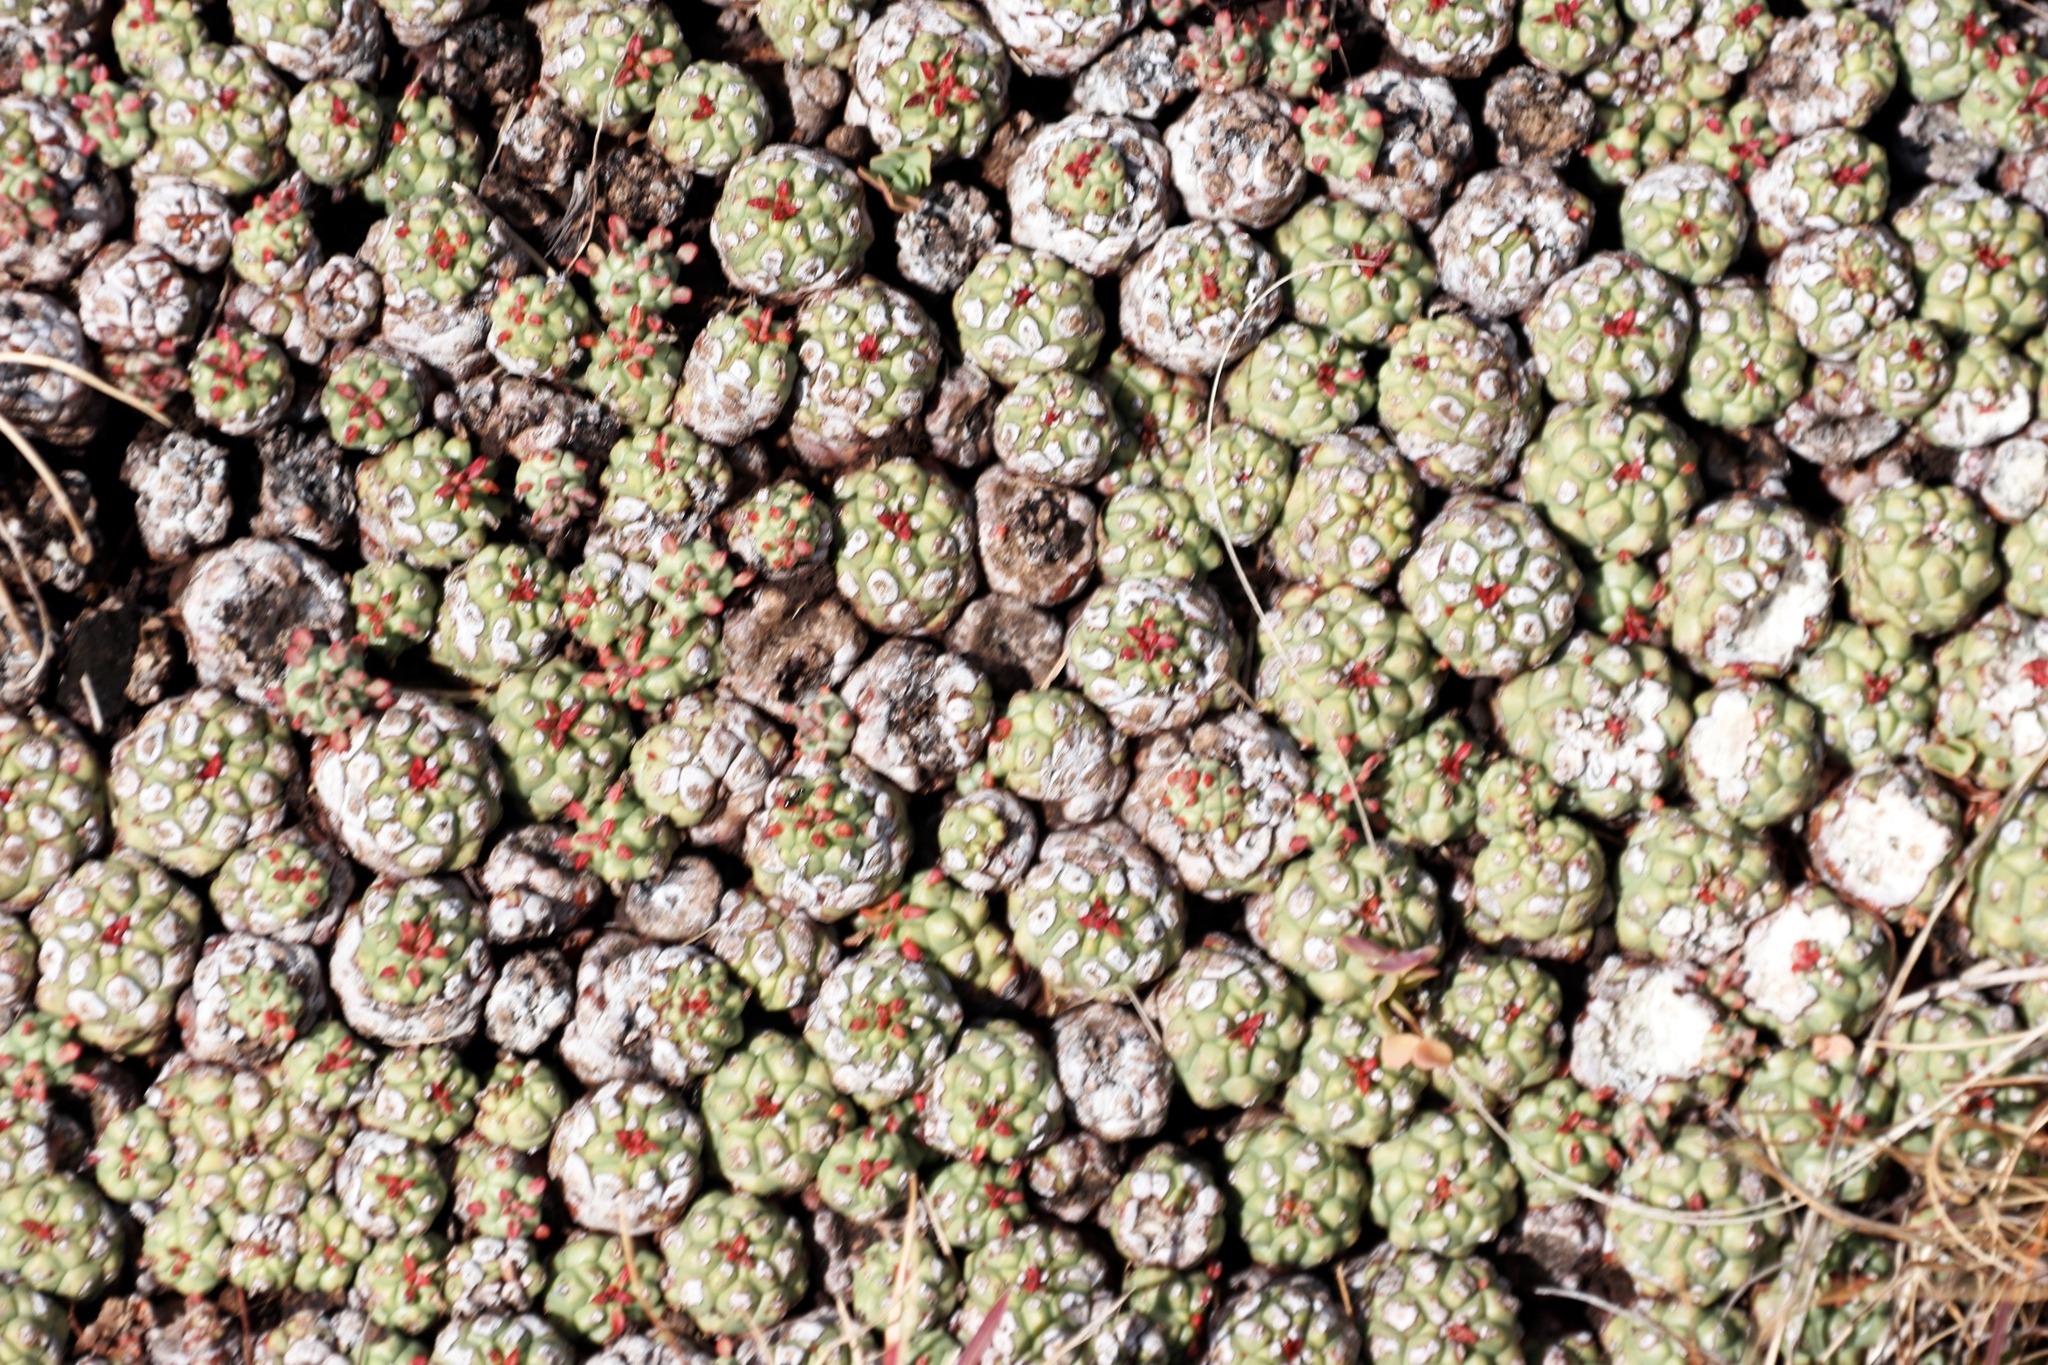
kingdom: Plantae
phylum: Tracheophyta
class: Magnoliopsida
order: Malpighiales
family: Euphorbiaceae
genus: Euphorbia
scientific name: Euphorbia clavarioides
